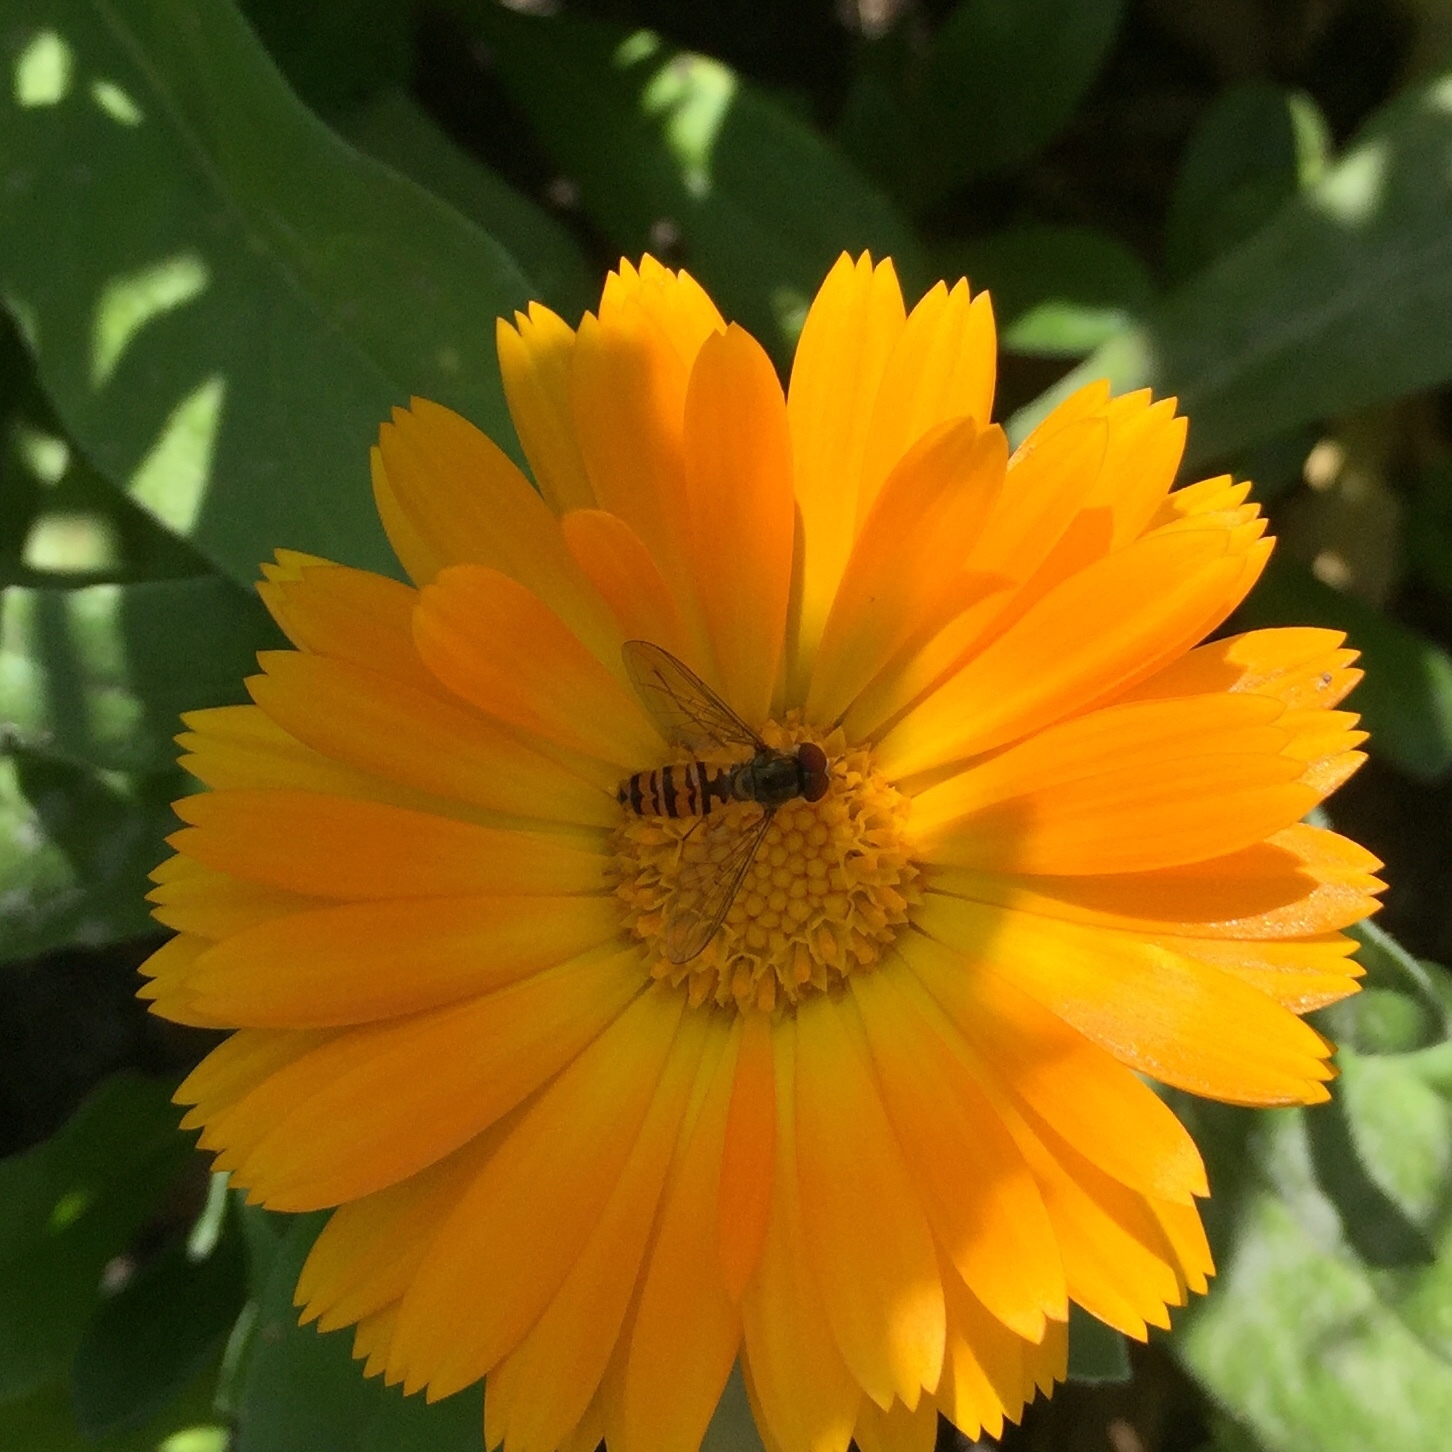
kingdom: Animalia
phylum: Arthropoda
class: Insecta
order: Diptera
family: Syrphidae
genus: Episyrphus
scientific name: Episyrphus balteatus
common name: Marmalade hoverfly
